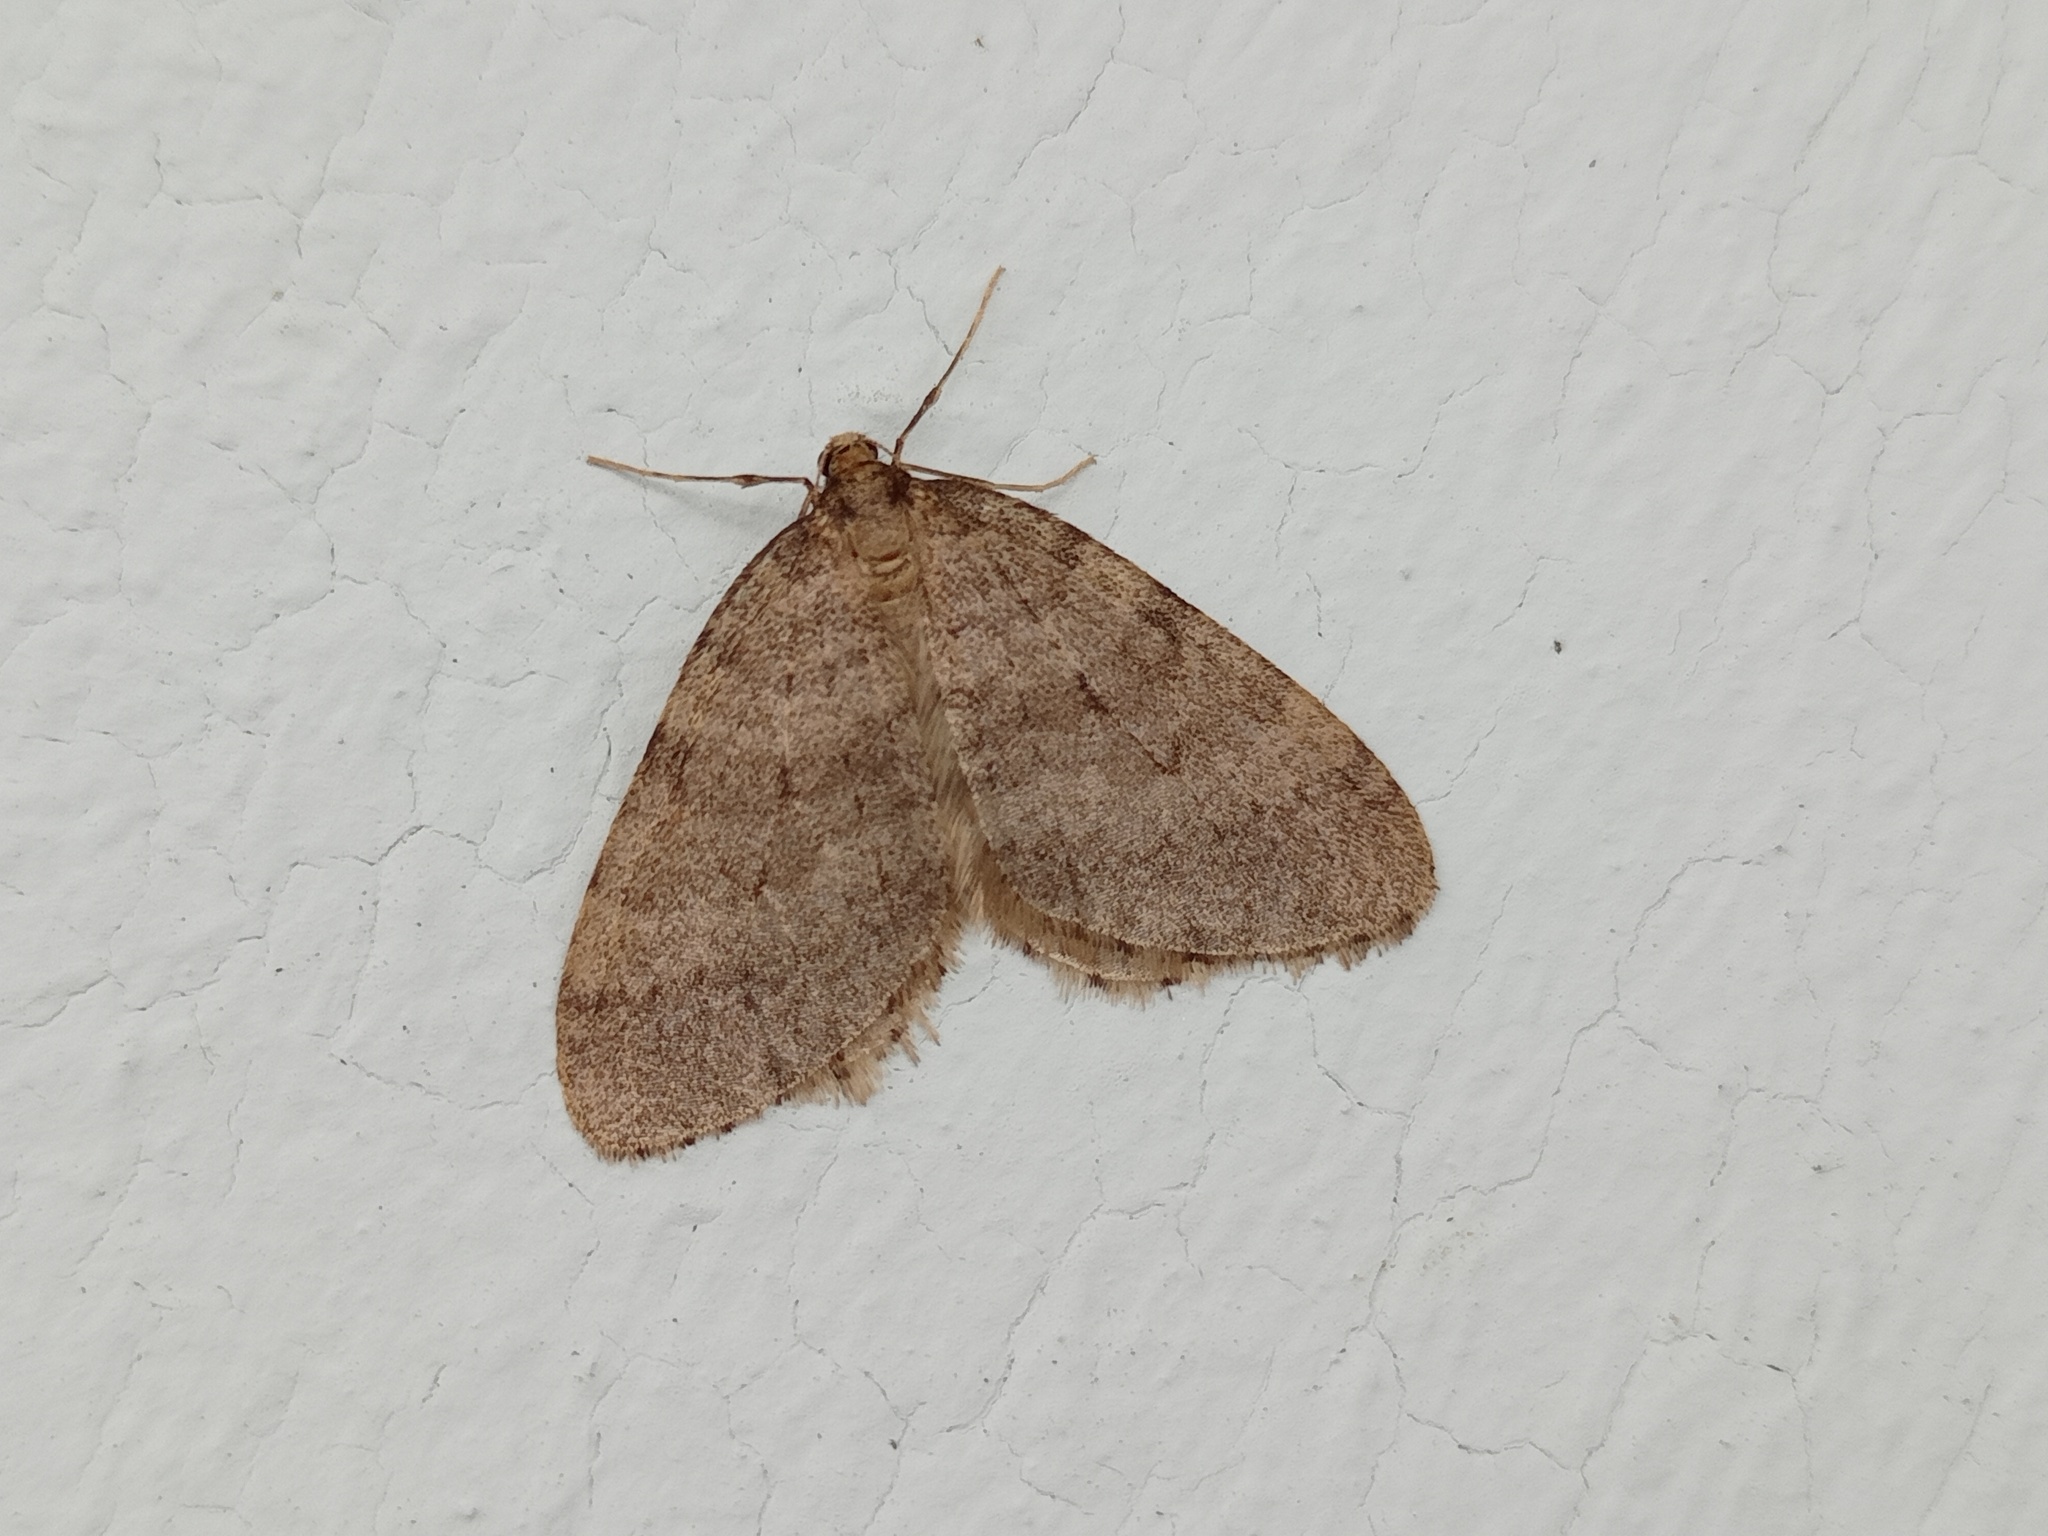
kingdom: Animalia
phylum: Arthropoda
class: Insecta
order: Lepidoptera
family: Geometridae
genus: Operophtera
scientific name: Operophtera brumata
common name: Winter moth
